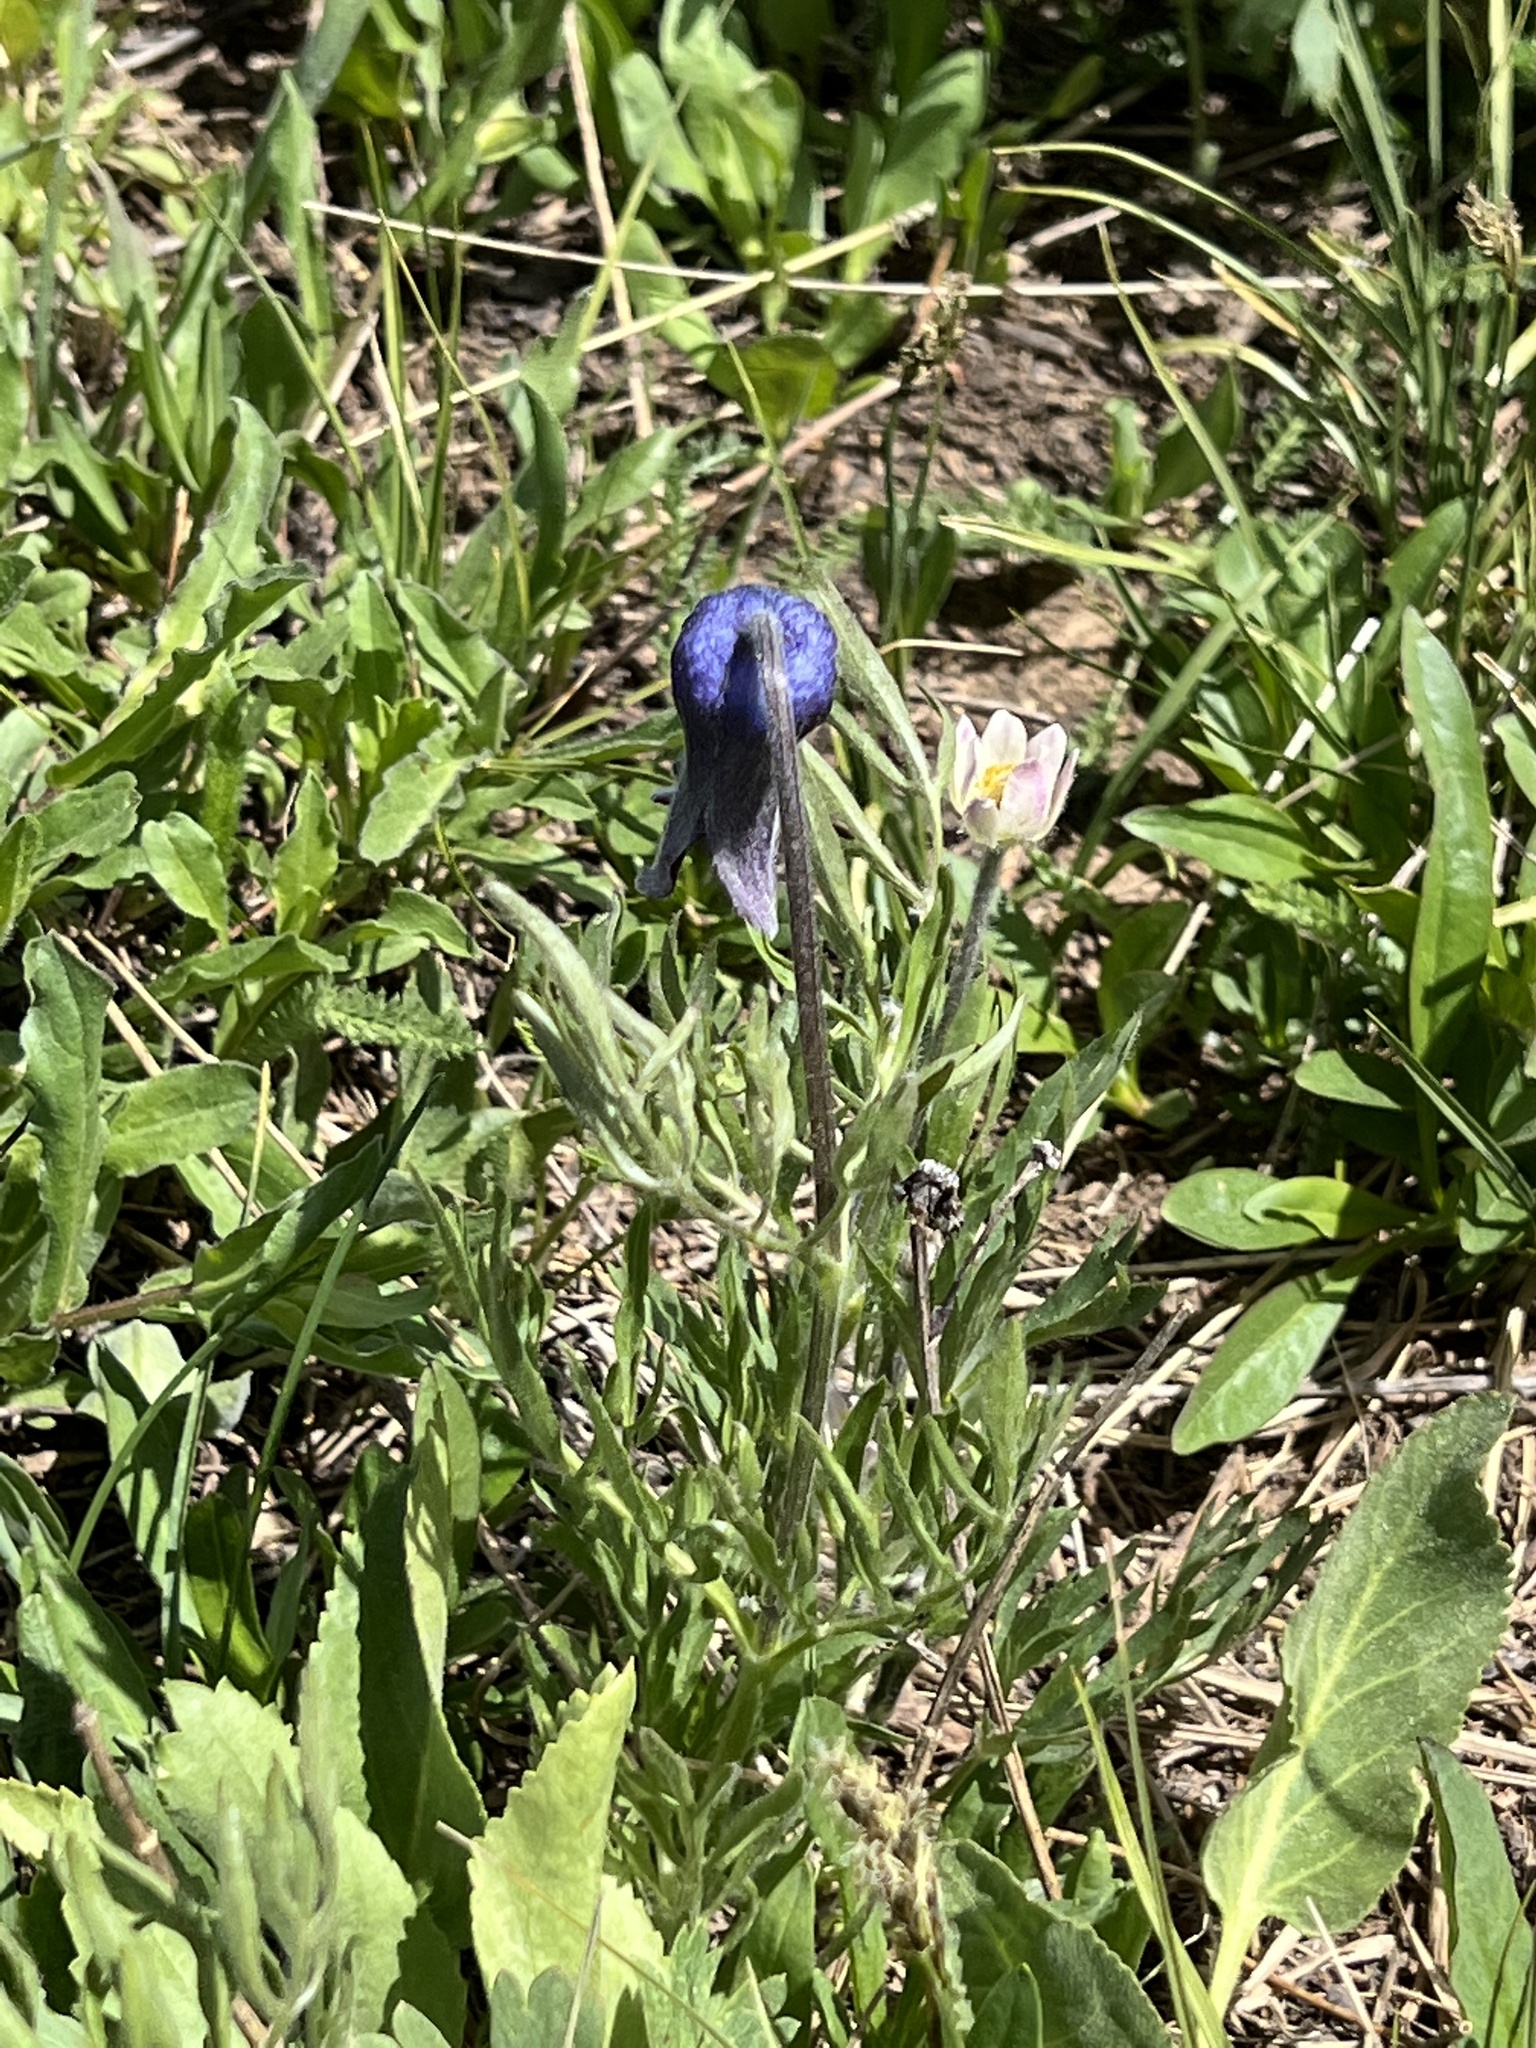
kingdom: Plantae
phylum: Tracheophyta
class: Magnoliopsida
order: Ranunculales
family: Ranunculaceae
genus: Clematis
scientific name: Clematis hirsutissima
